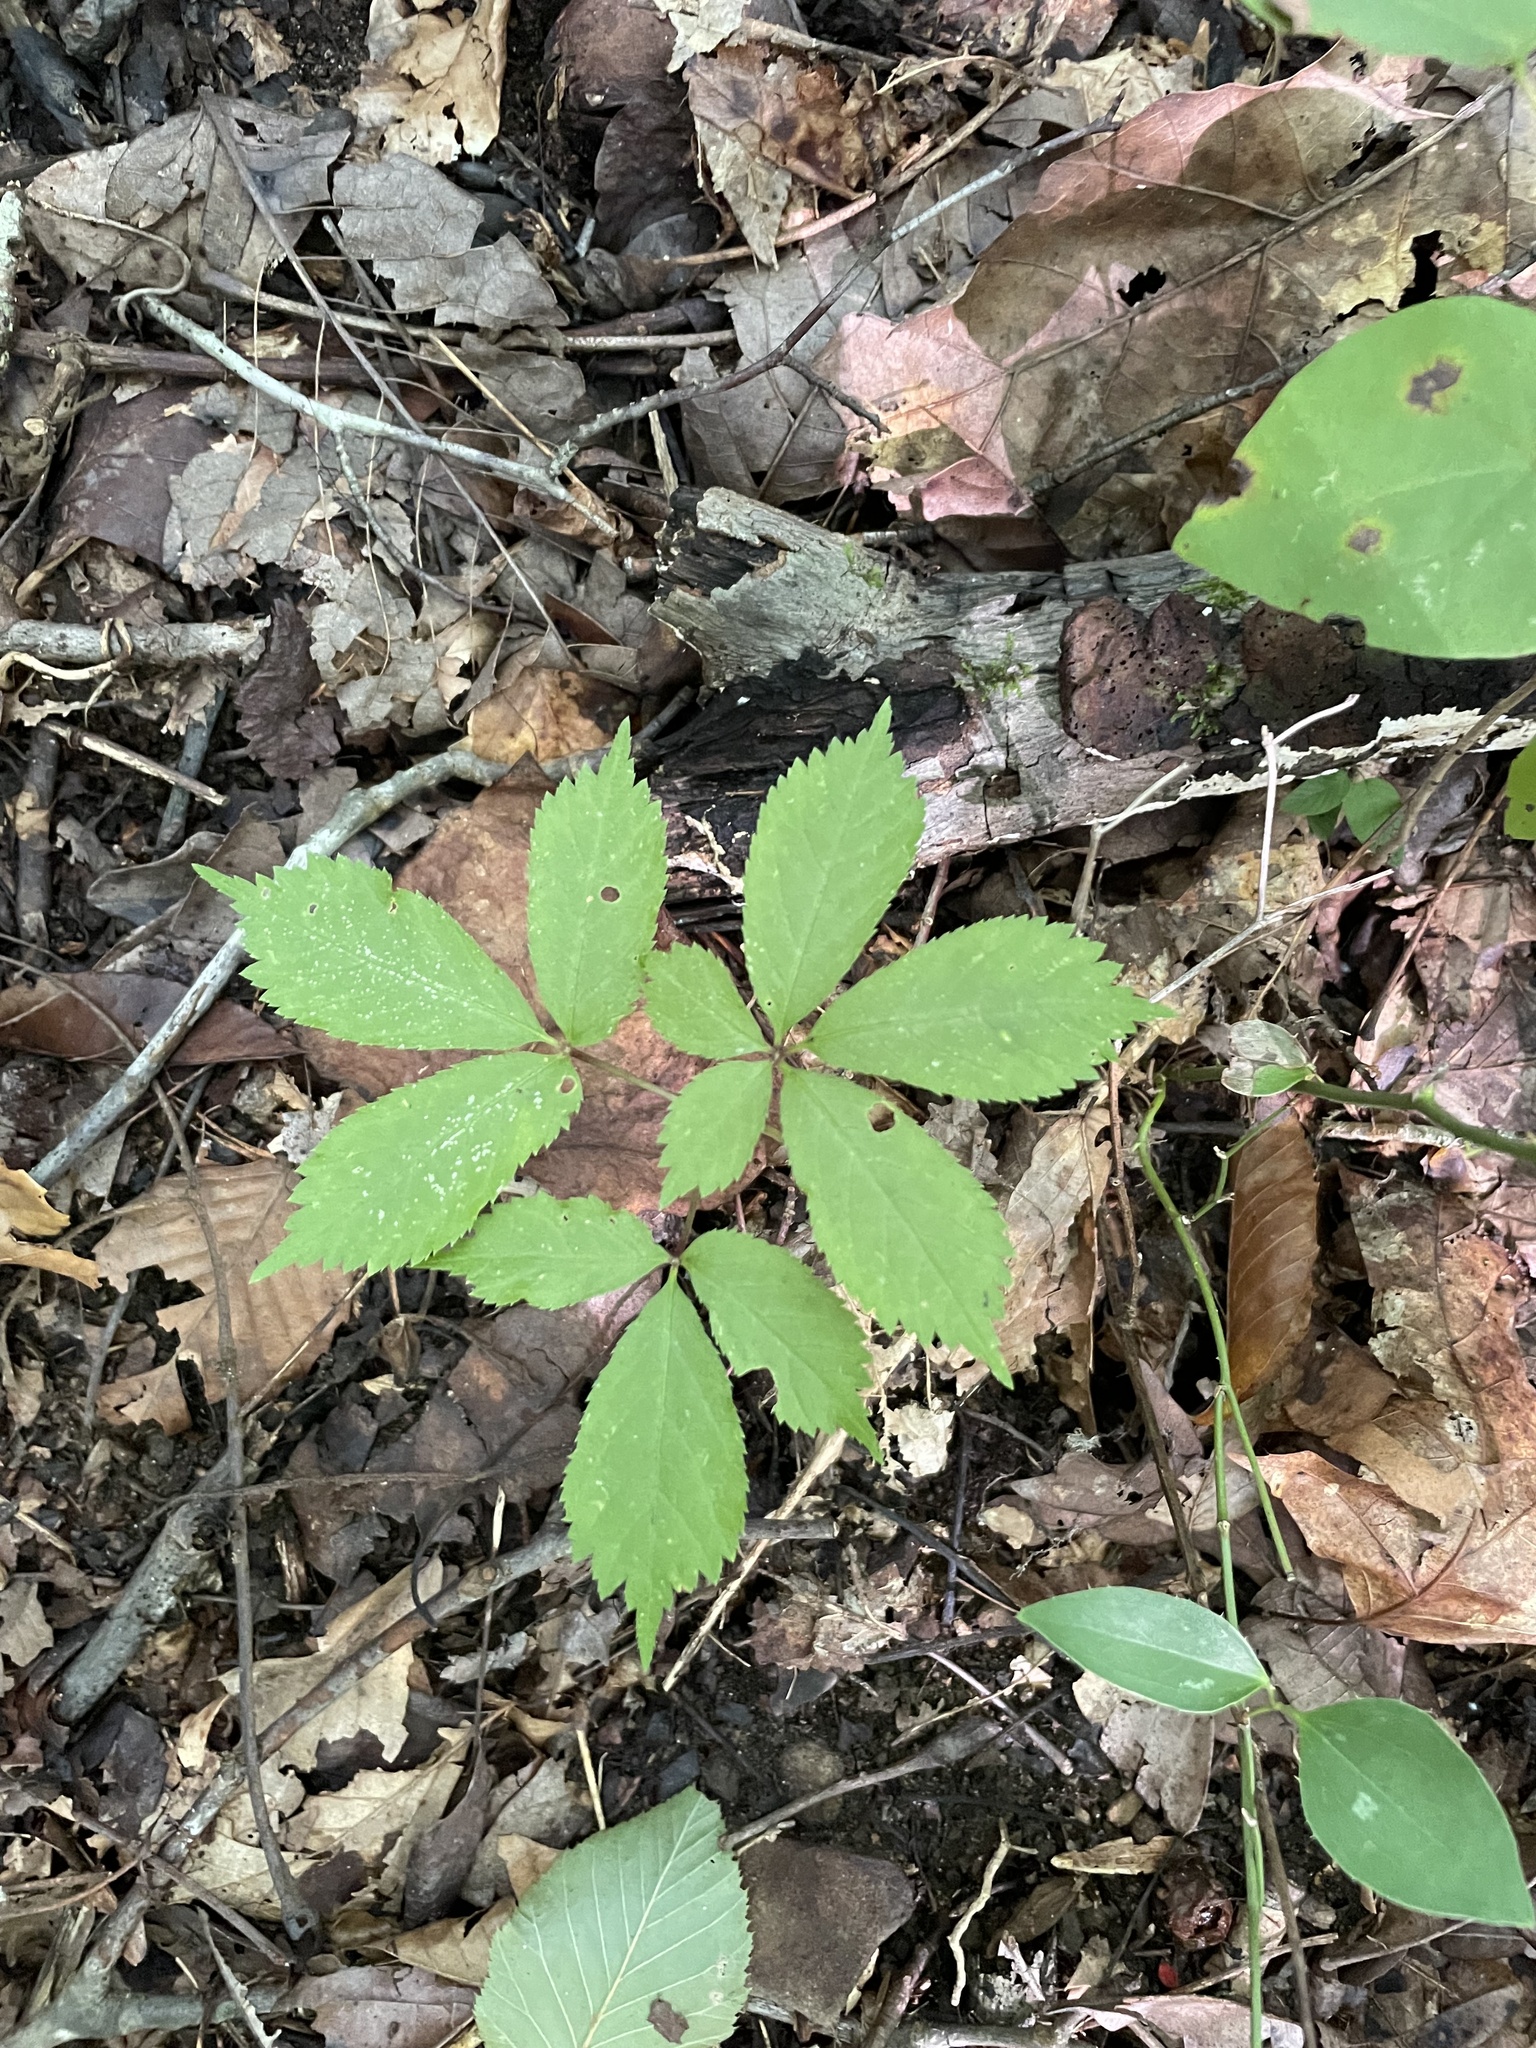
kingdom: Plantae
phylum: Tracheophyta
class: Magnoliopsida
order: Apiales
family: Araliaceae
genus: Panax
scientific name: Panax quinquefolius
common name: American ginseng
